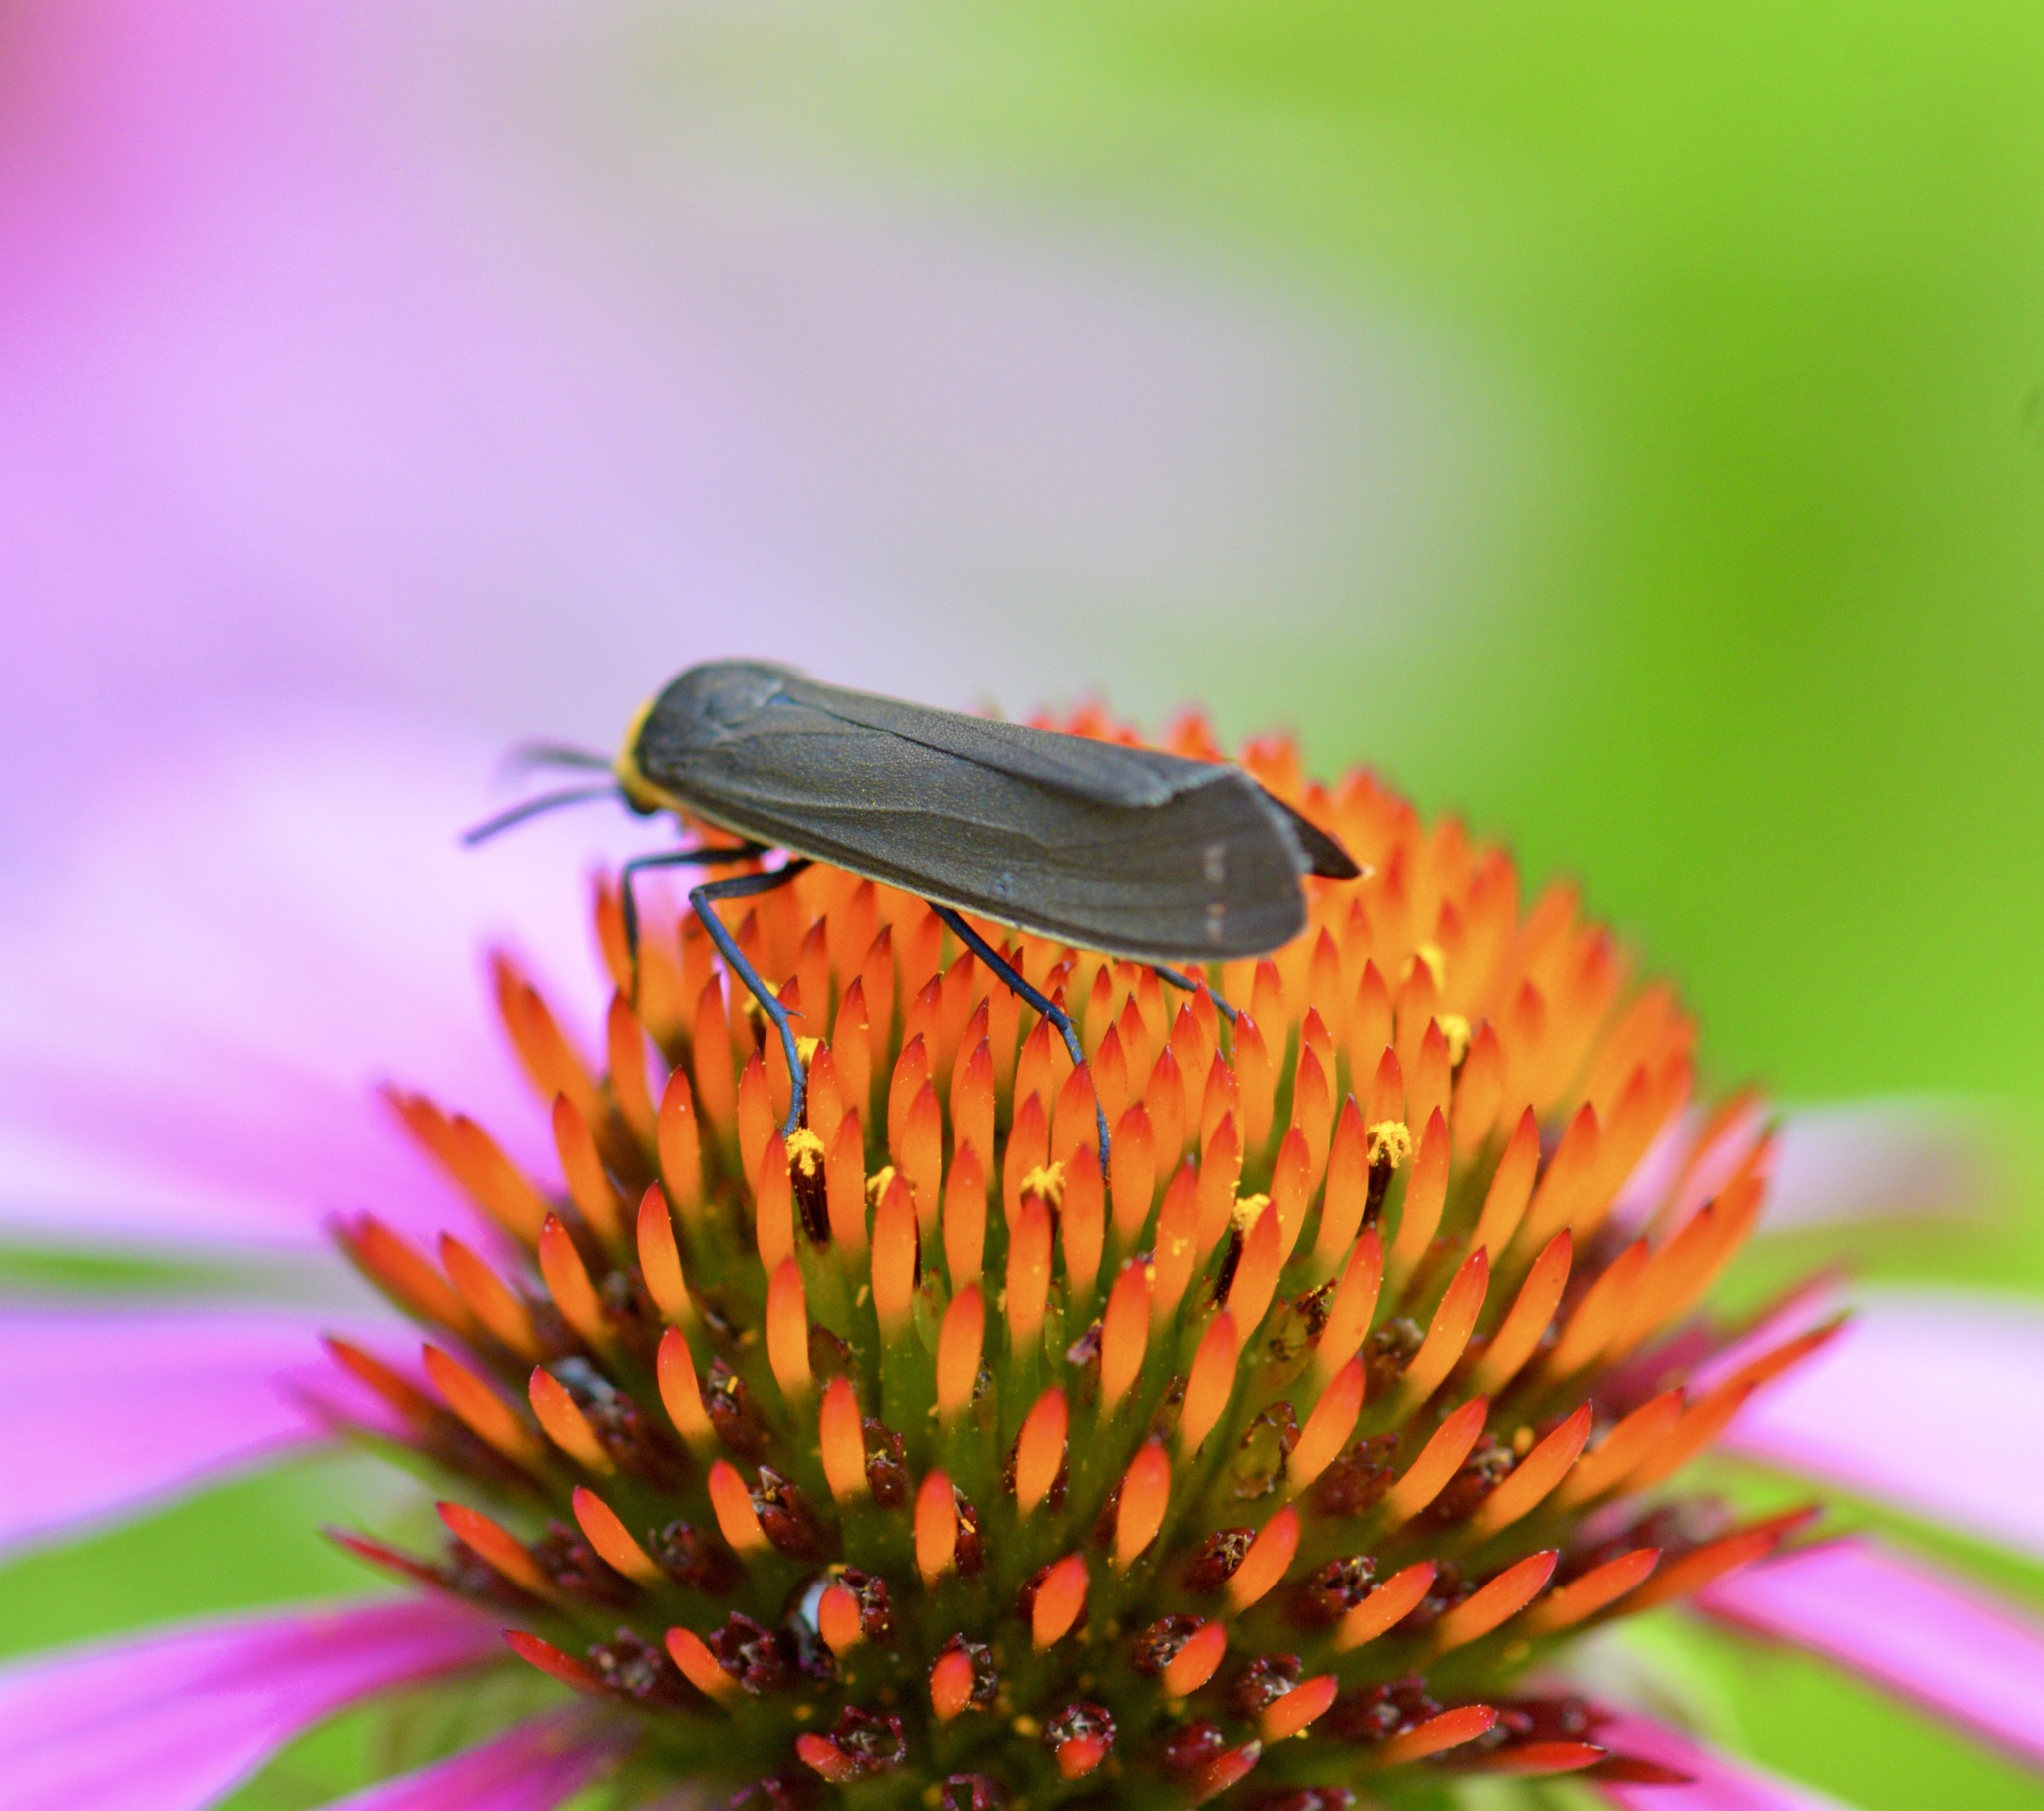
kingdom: Animalia
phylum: Arthropoda
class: Insecta
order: Lepidoptera
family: Erebidae
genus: Cisseps
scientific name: Cisseps fulvicollis
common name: Yellow-collared scape moth
